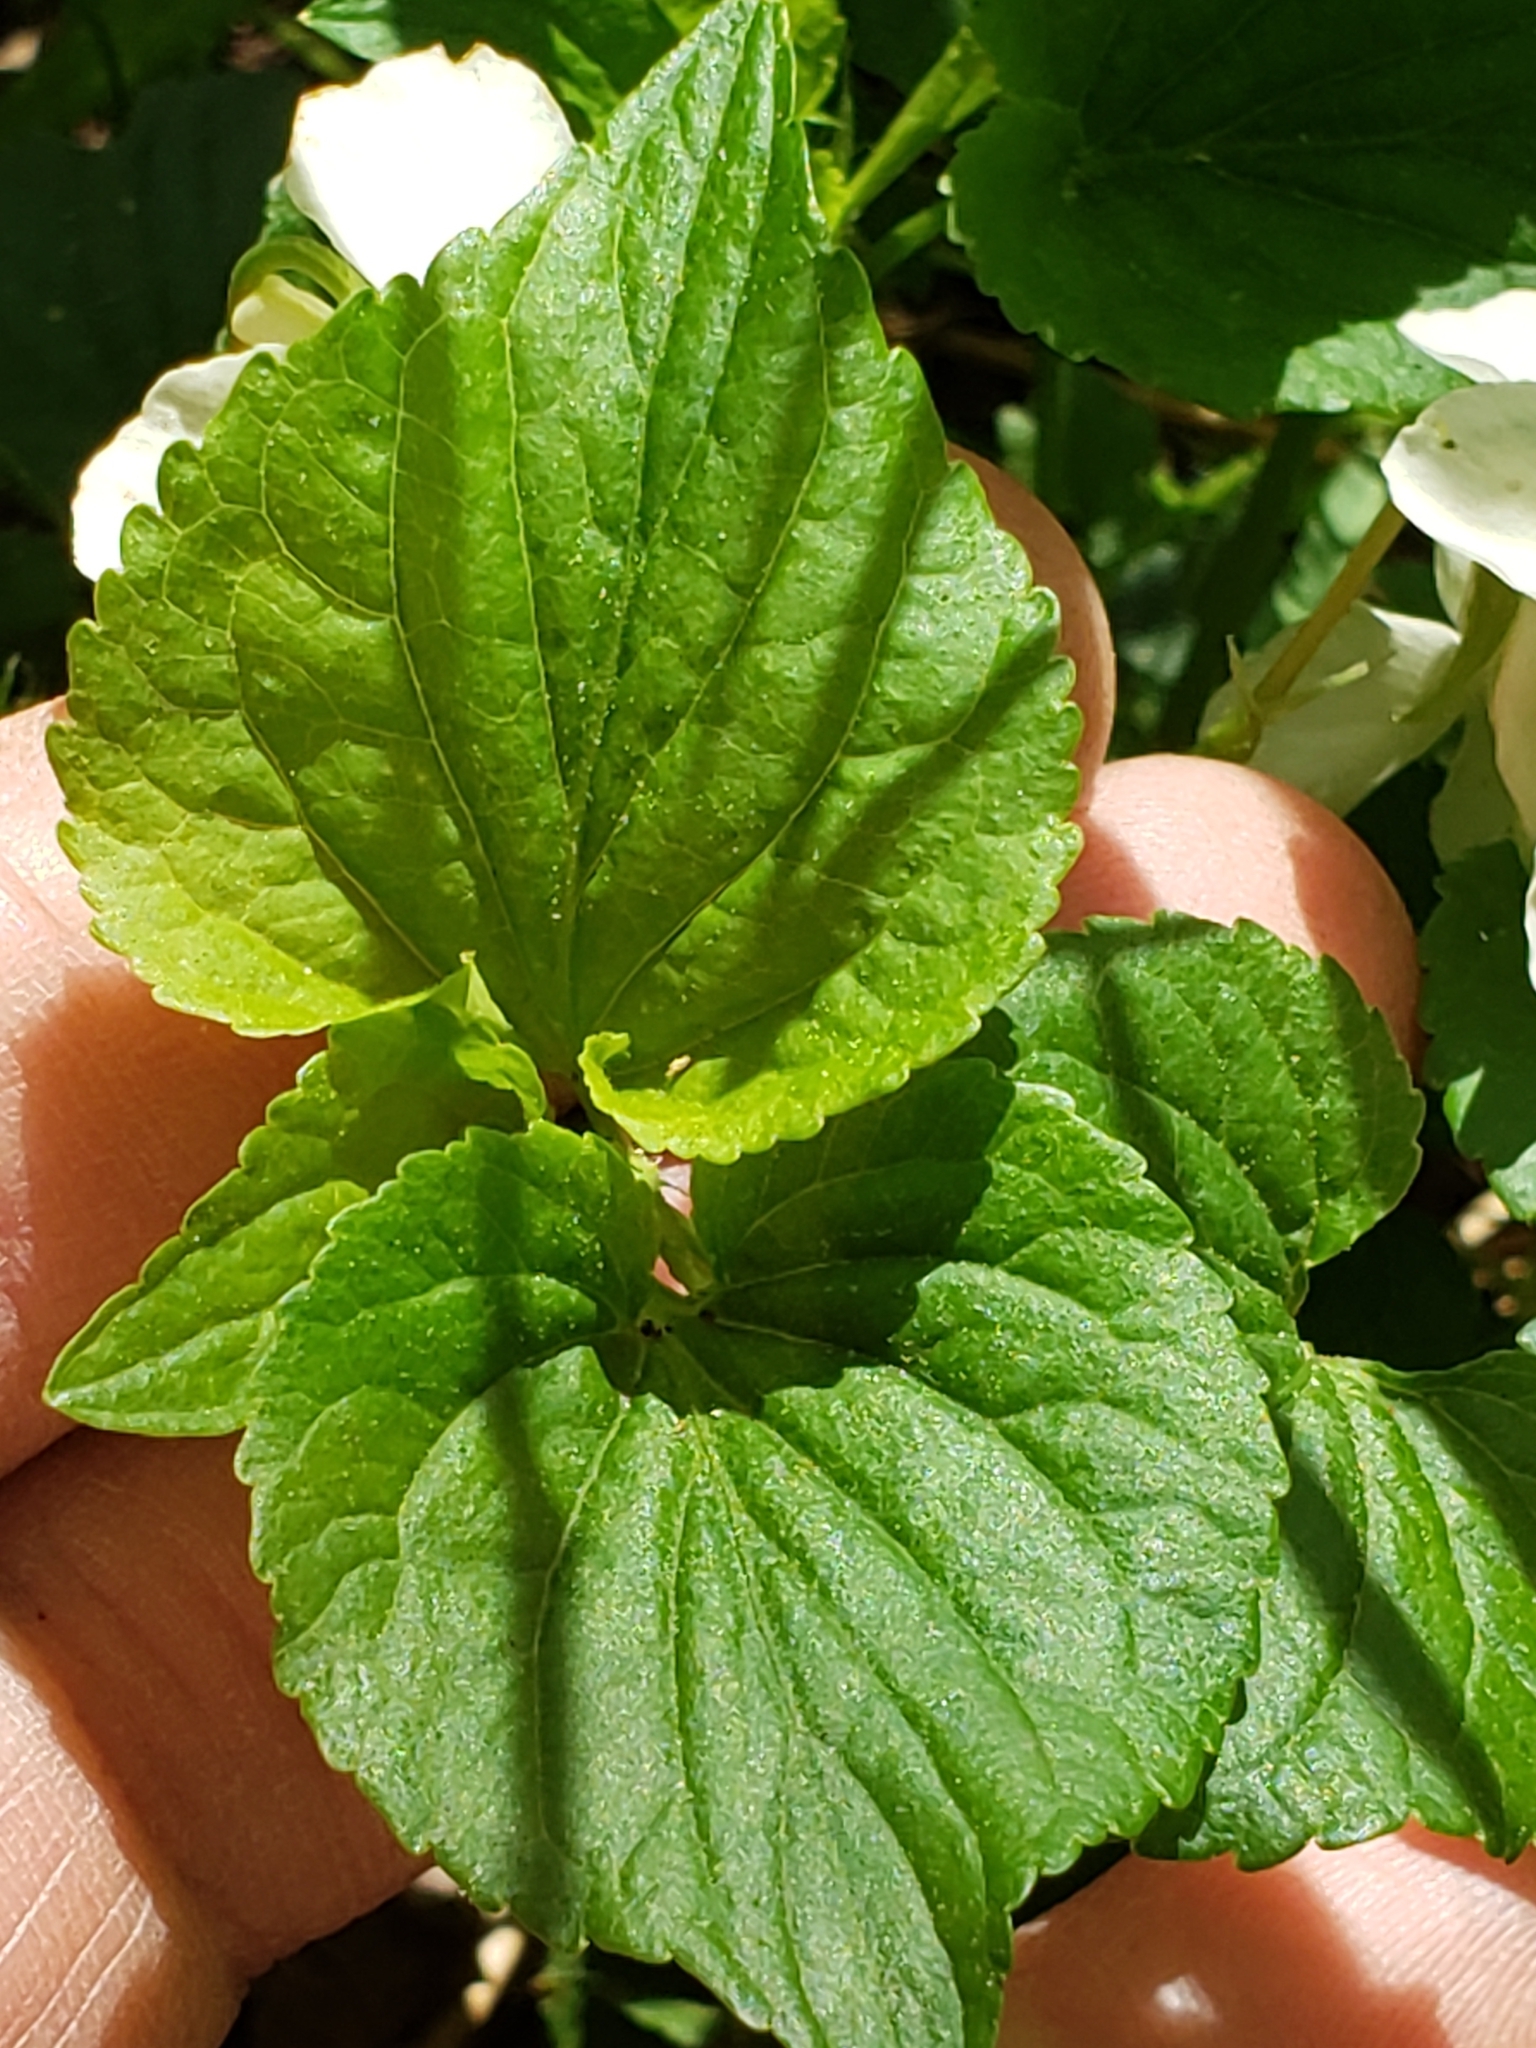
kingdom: Plantae
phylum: Tracheophyta
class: Magnoliopsida
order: Malpighiales
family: Violaceae
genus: Viola
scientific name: Viola striata
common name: Cream violet
